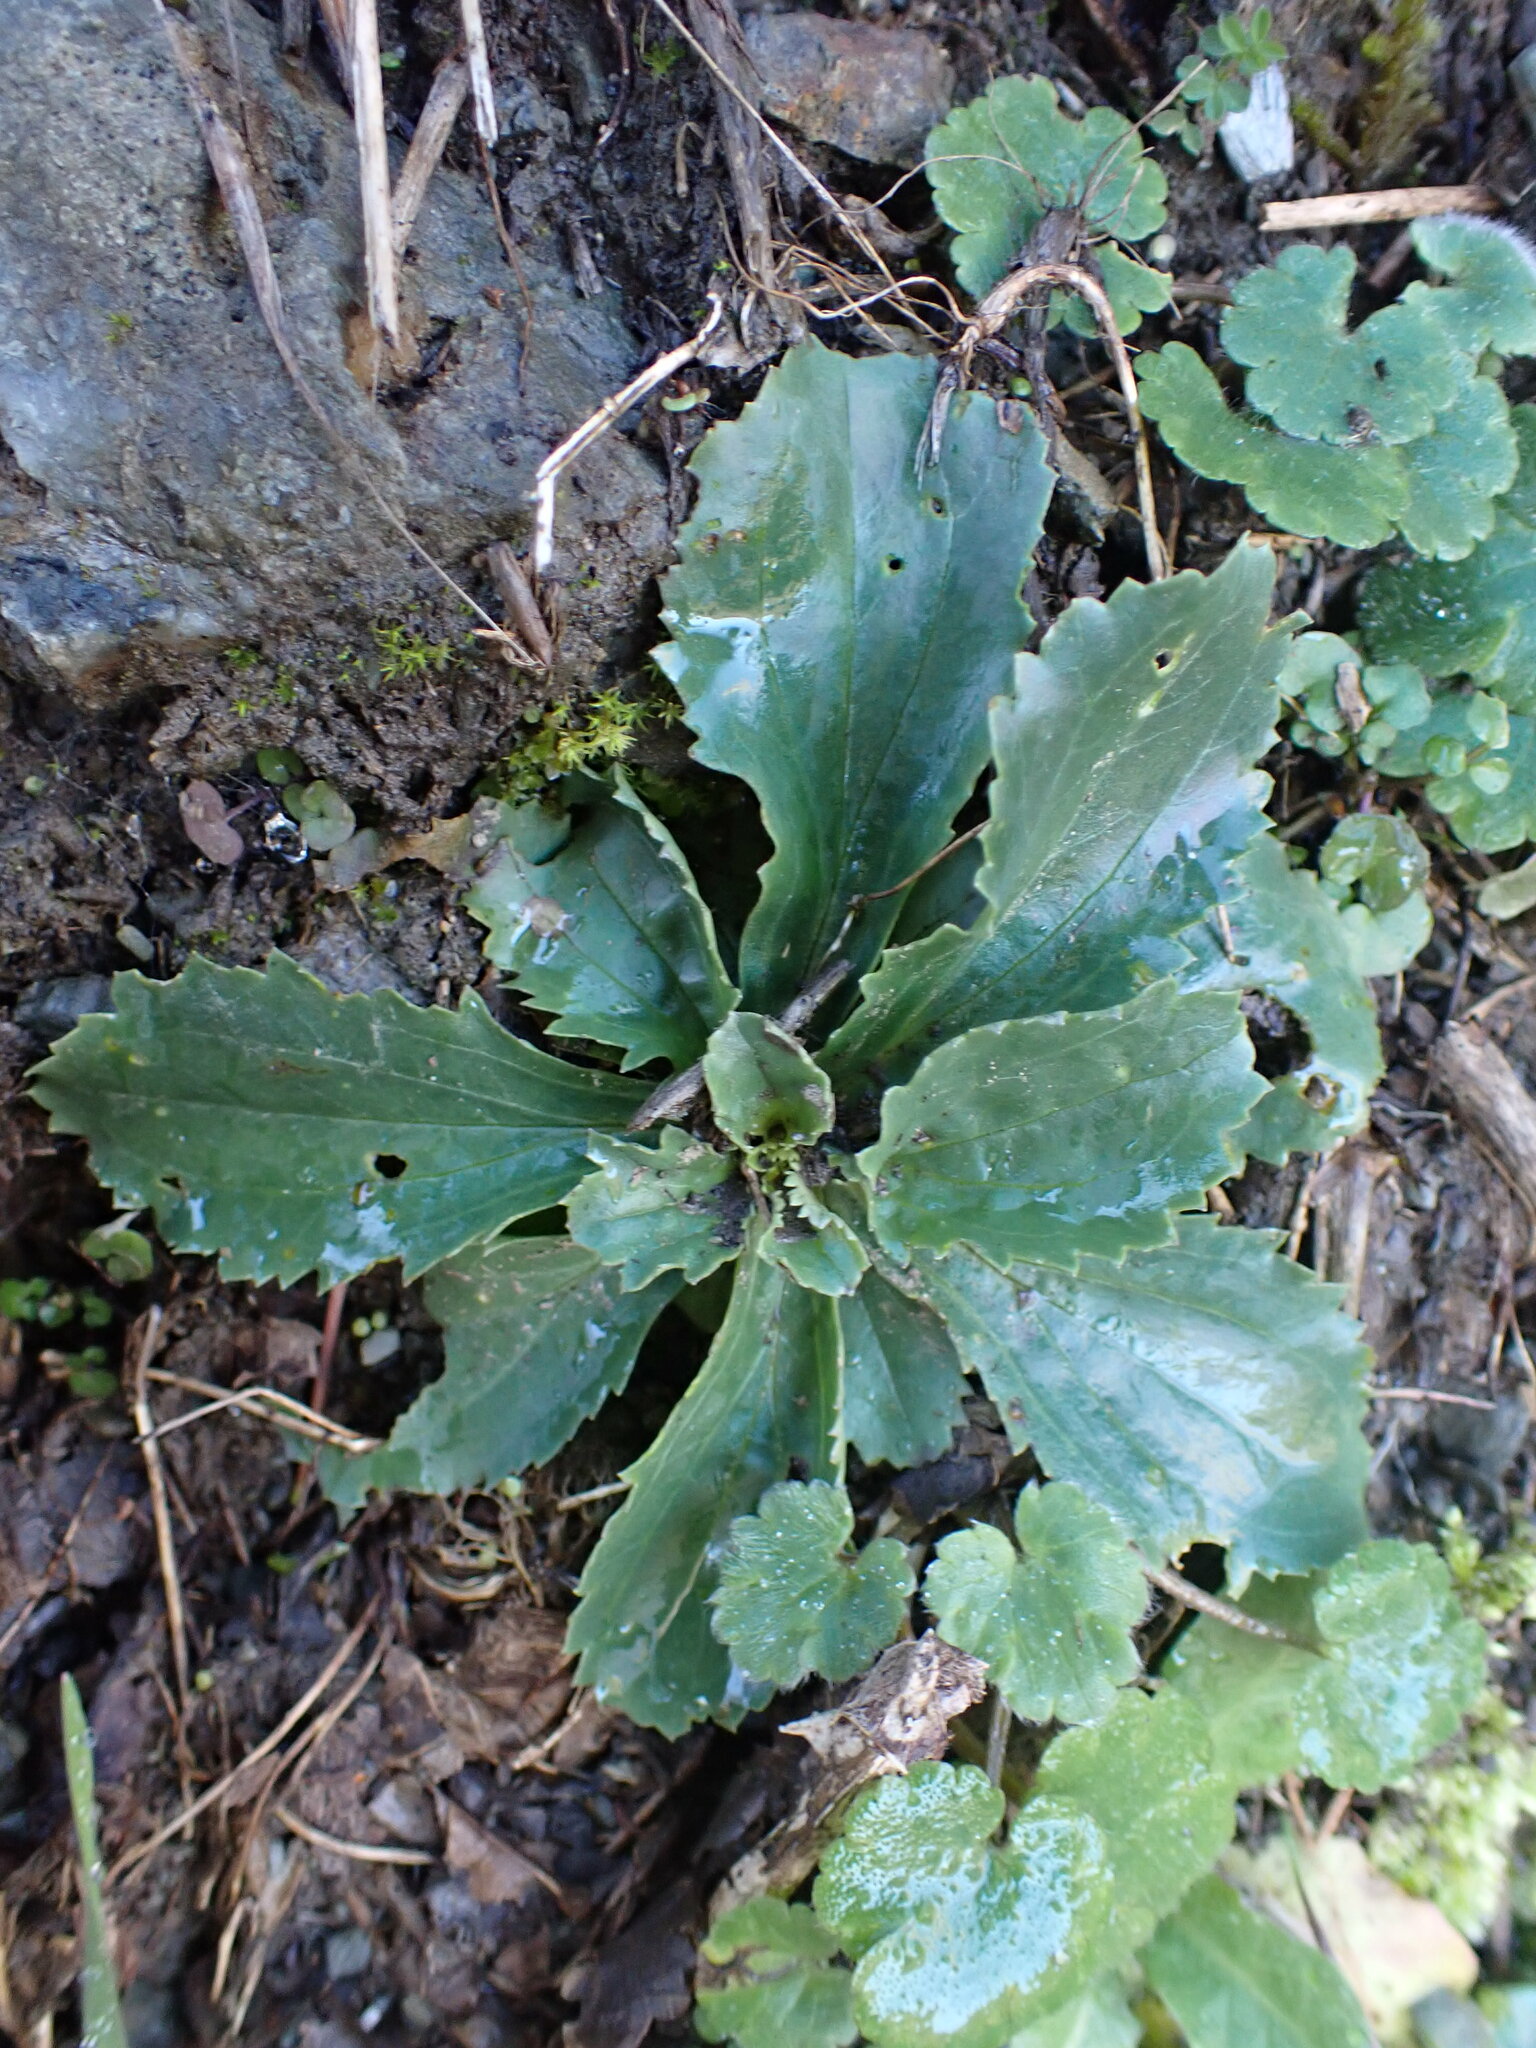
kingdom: Plantae
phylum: Tracheophyta
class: Magnoliopsida
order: Lamiales
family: Plantaginaceae
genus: Anarrhinum
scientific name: Anarrhinum bellidifolium
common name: Daisy-leaved toadflax
